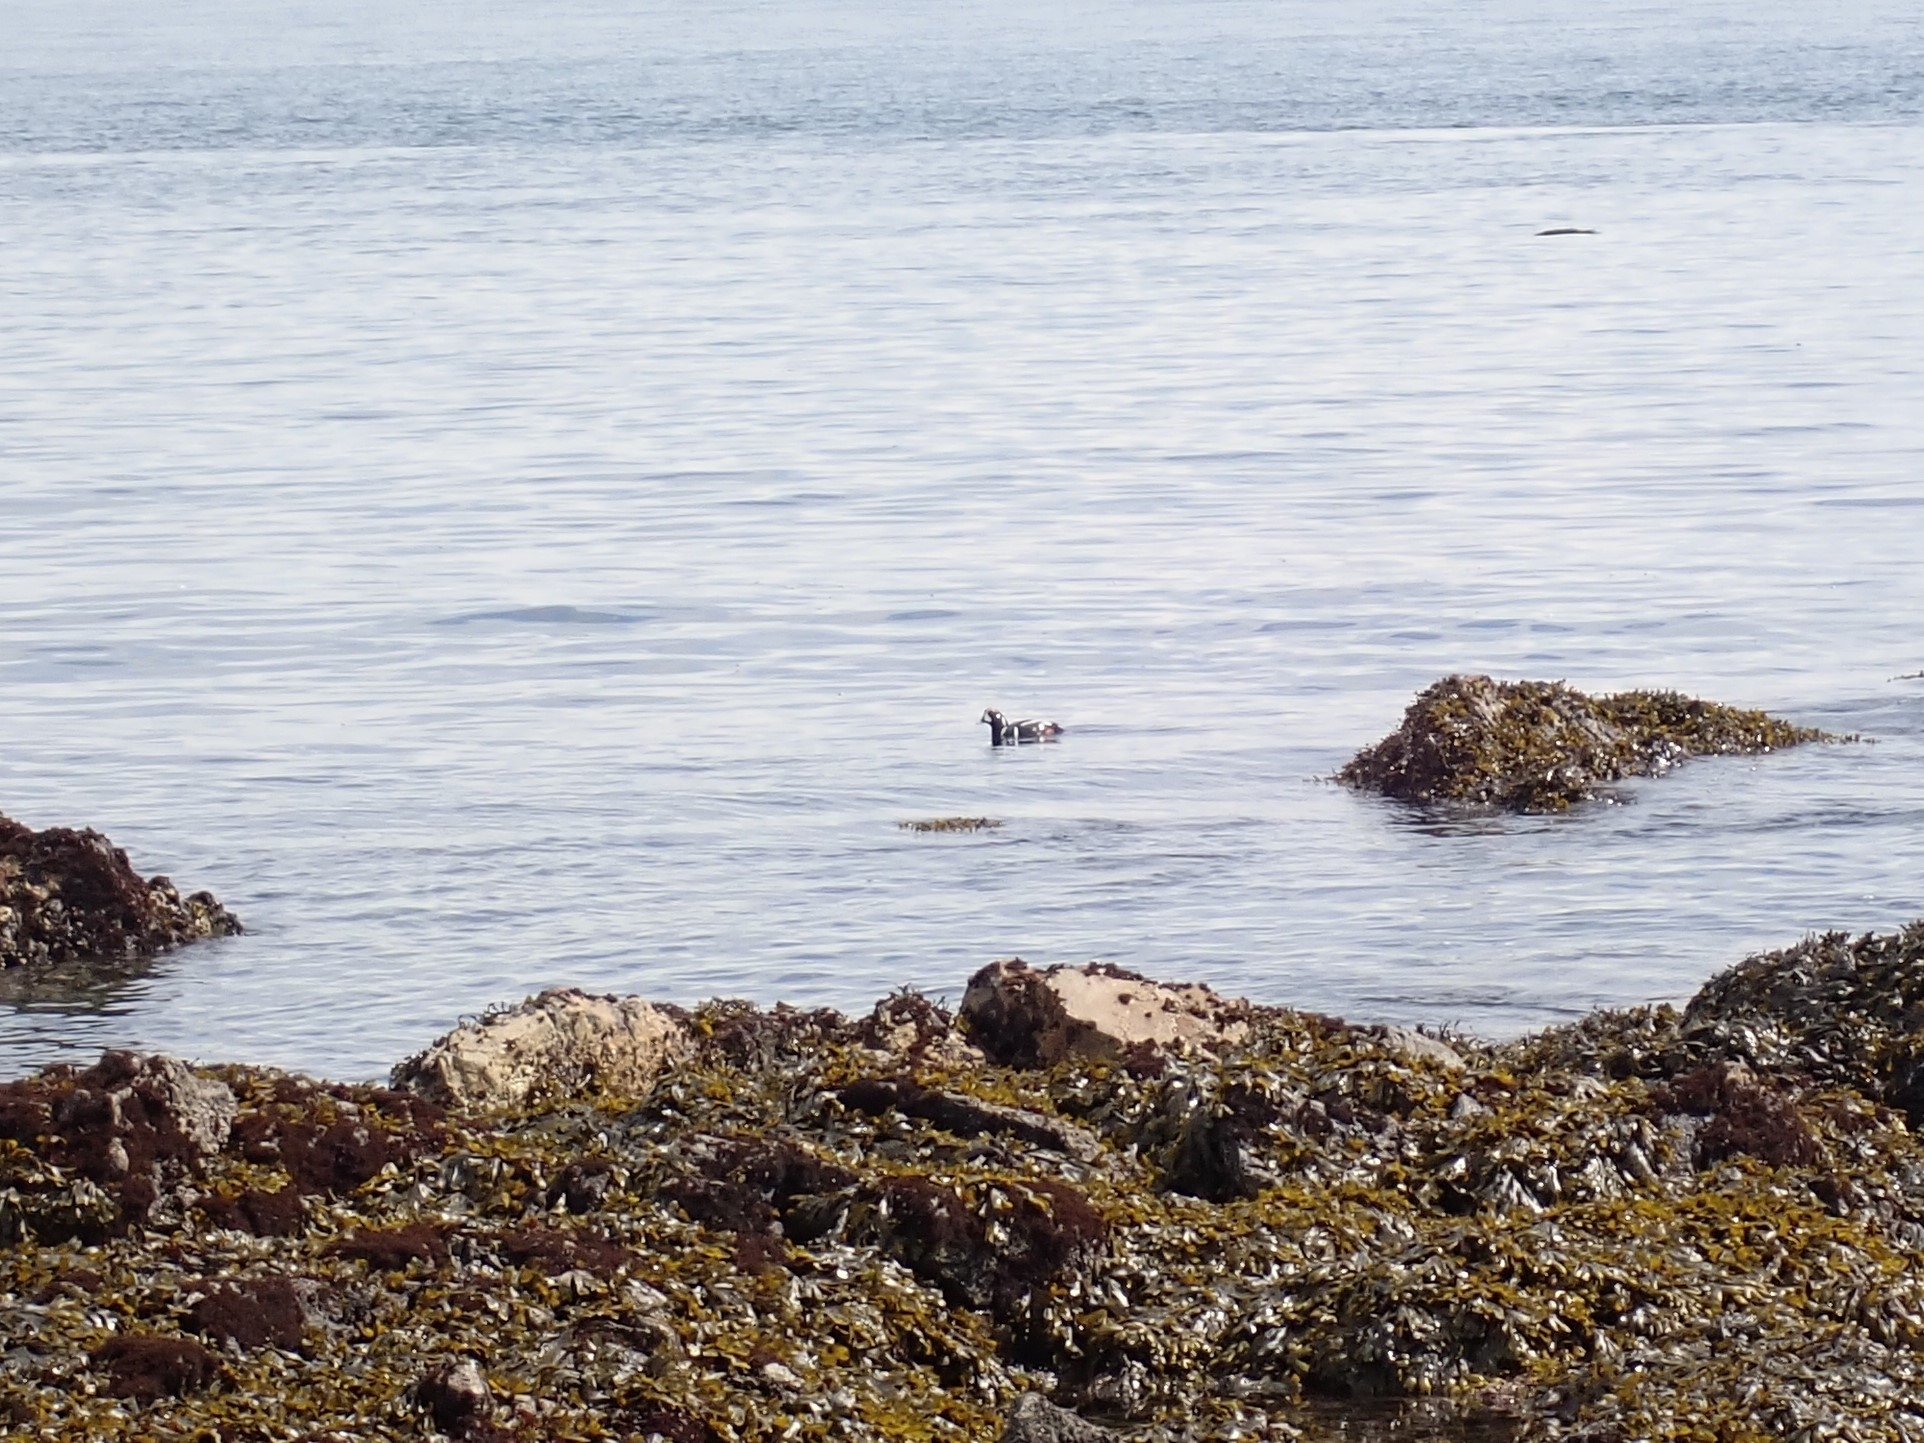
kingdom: Animalia
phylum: Chordata
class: Aves
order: Anseriformes
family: Anatidae
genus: Histrionicus
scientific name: Histrionicus histrionicus
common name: Harlequin duck
